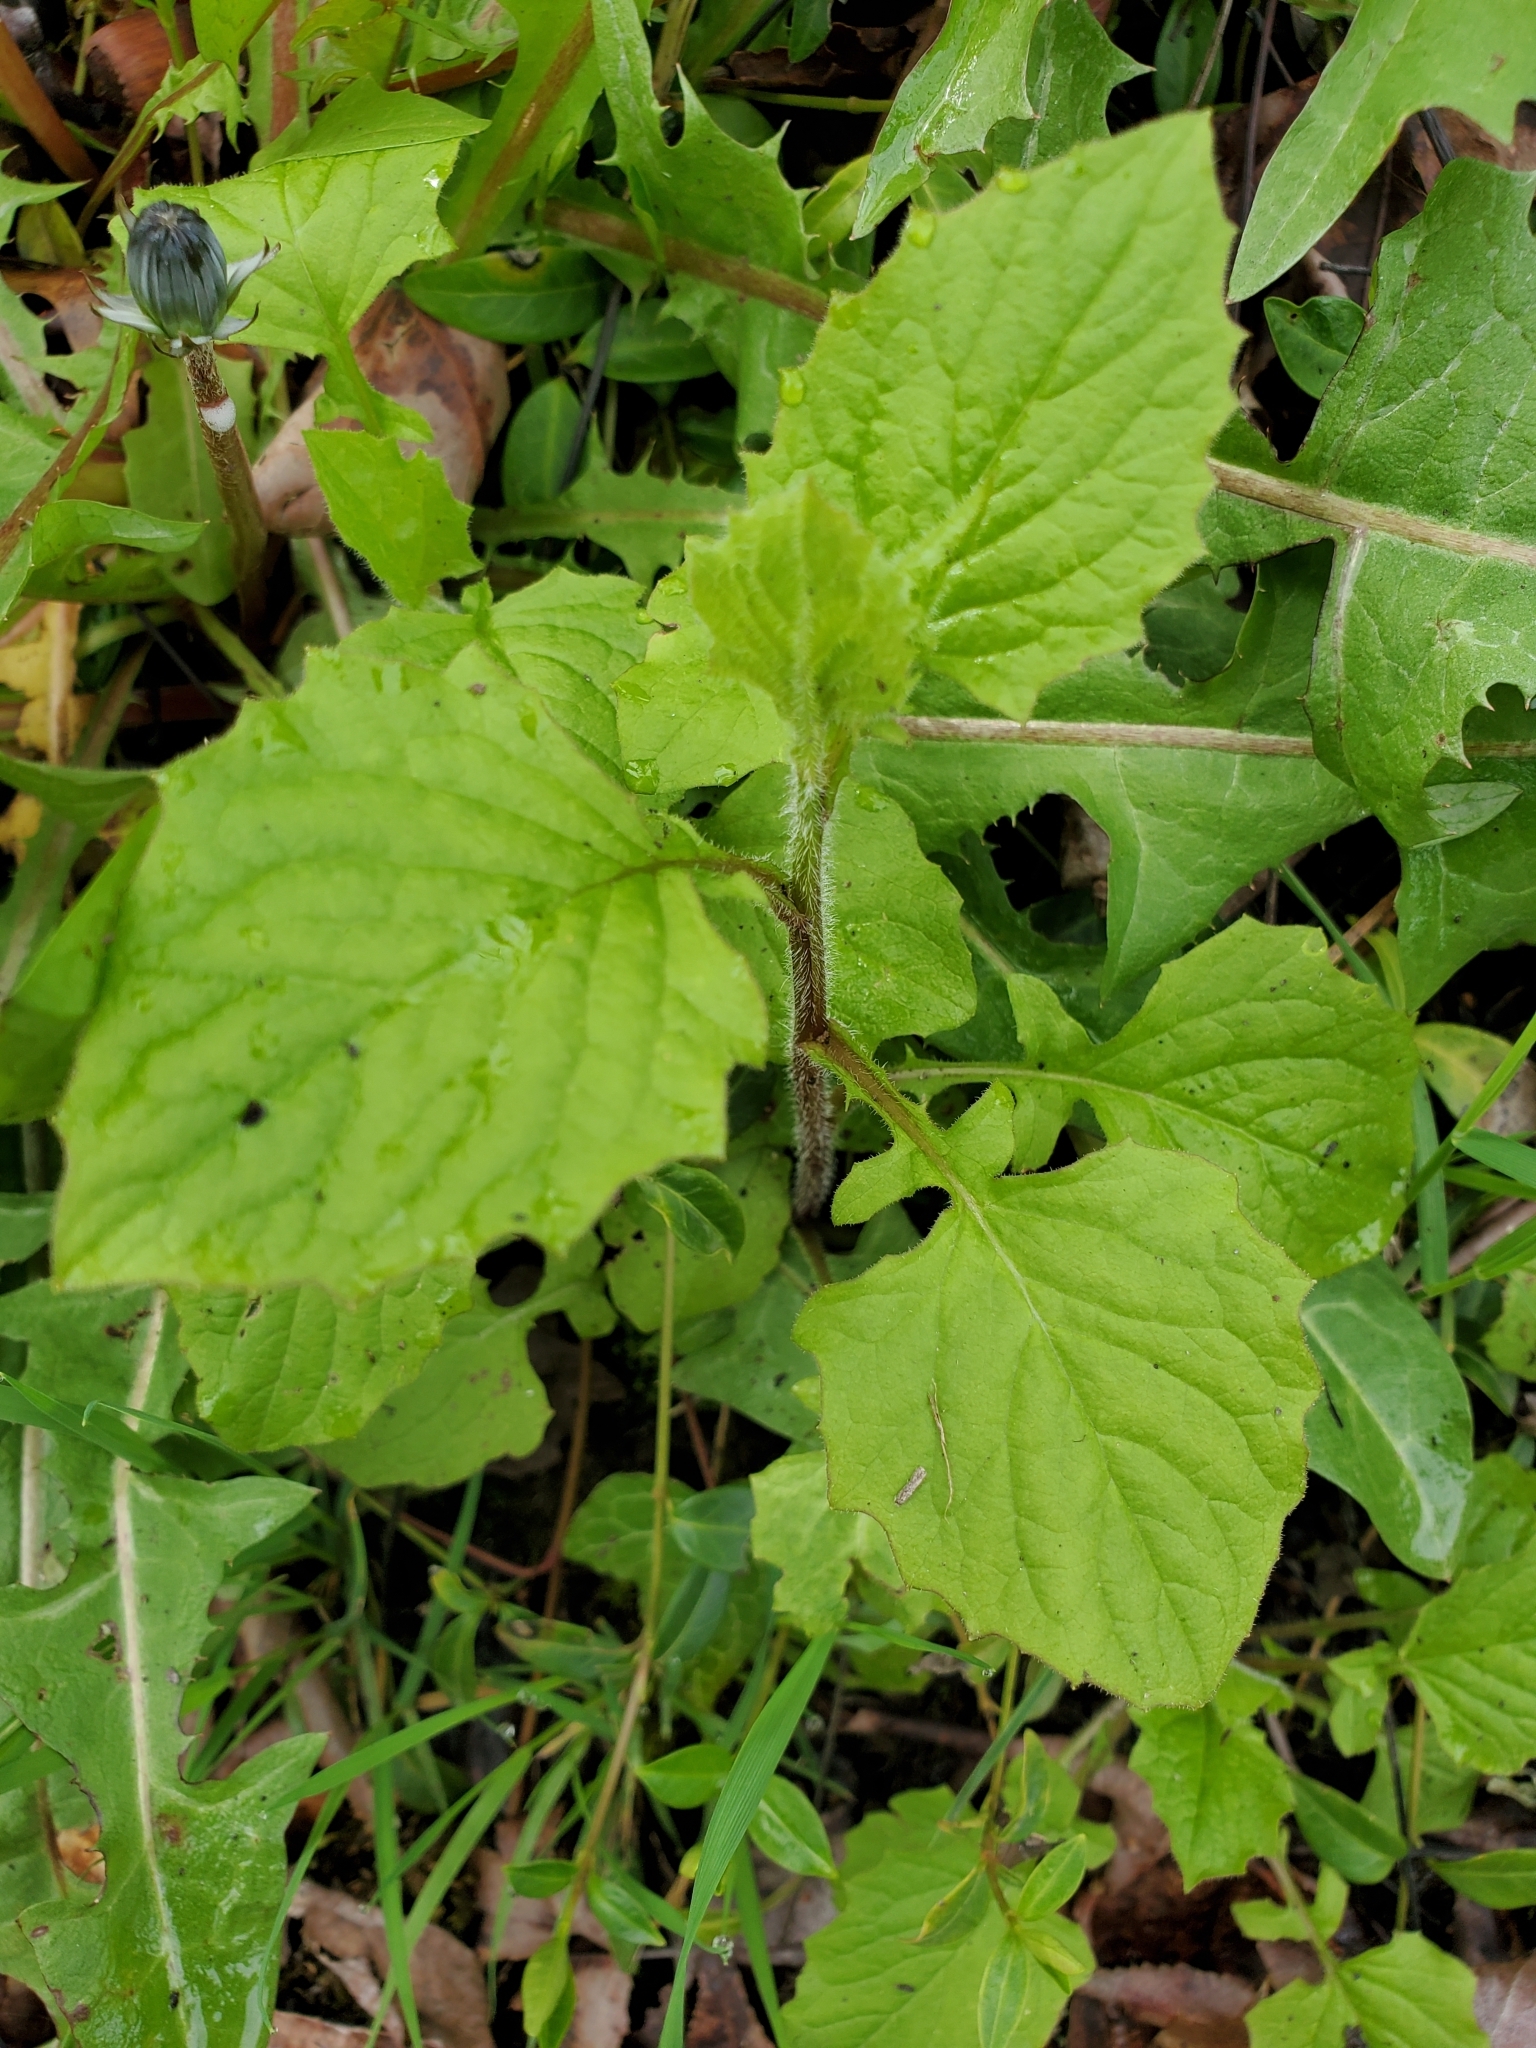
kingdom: Plantae
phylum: Tracheophyta
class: Magnoliopsida
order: Asterales
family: Asteraceae
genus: Lapsana
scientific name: Lapsana communis
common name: Nipplewort
